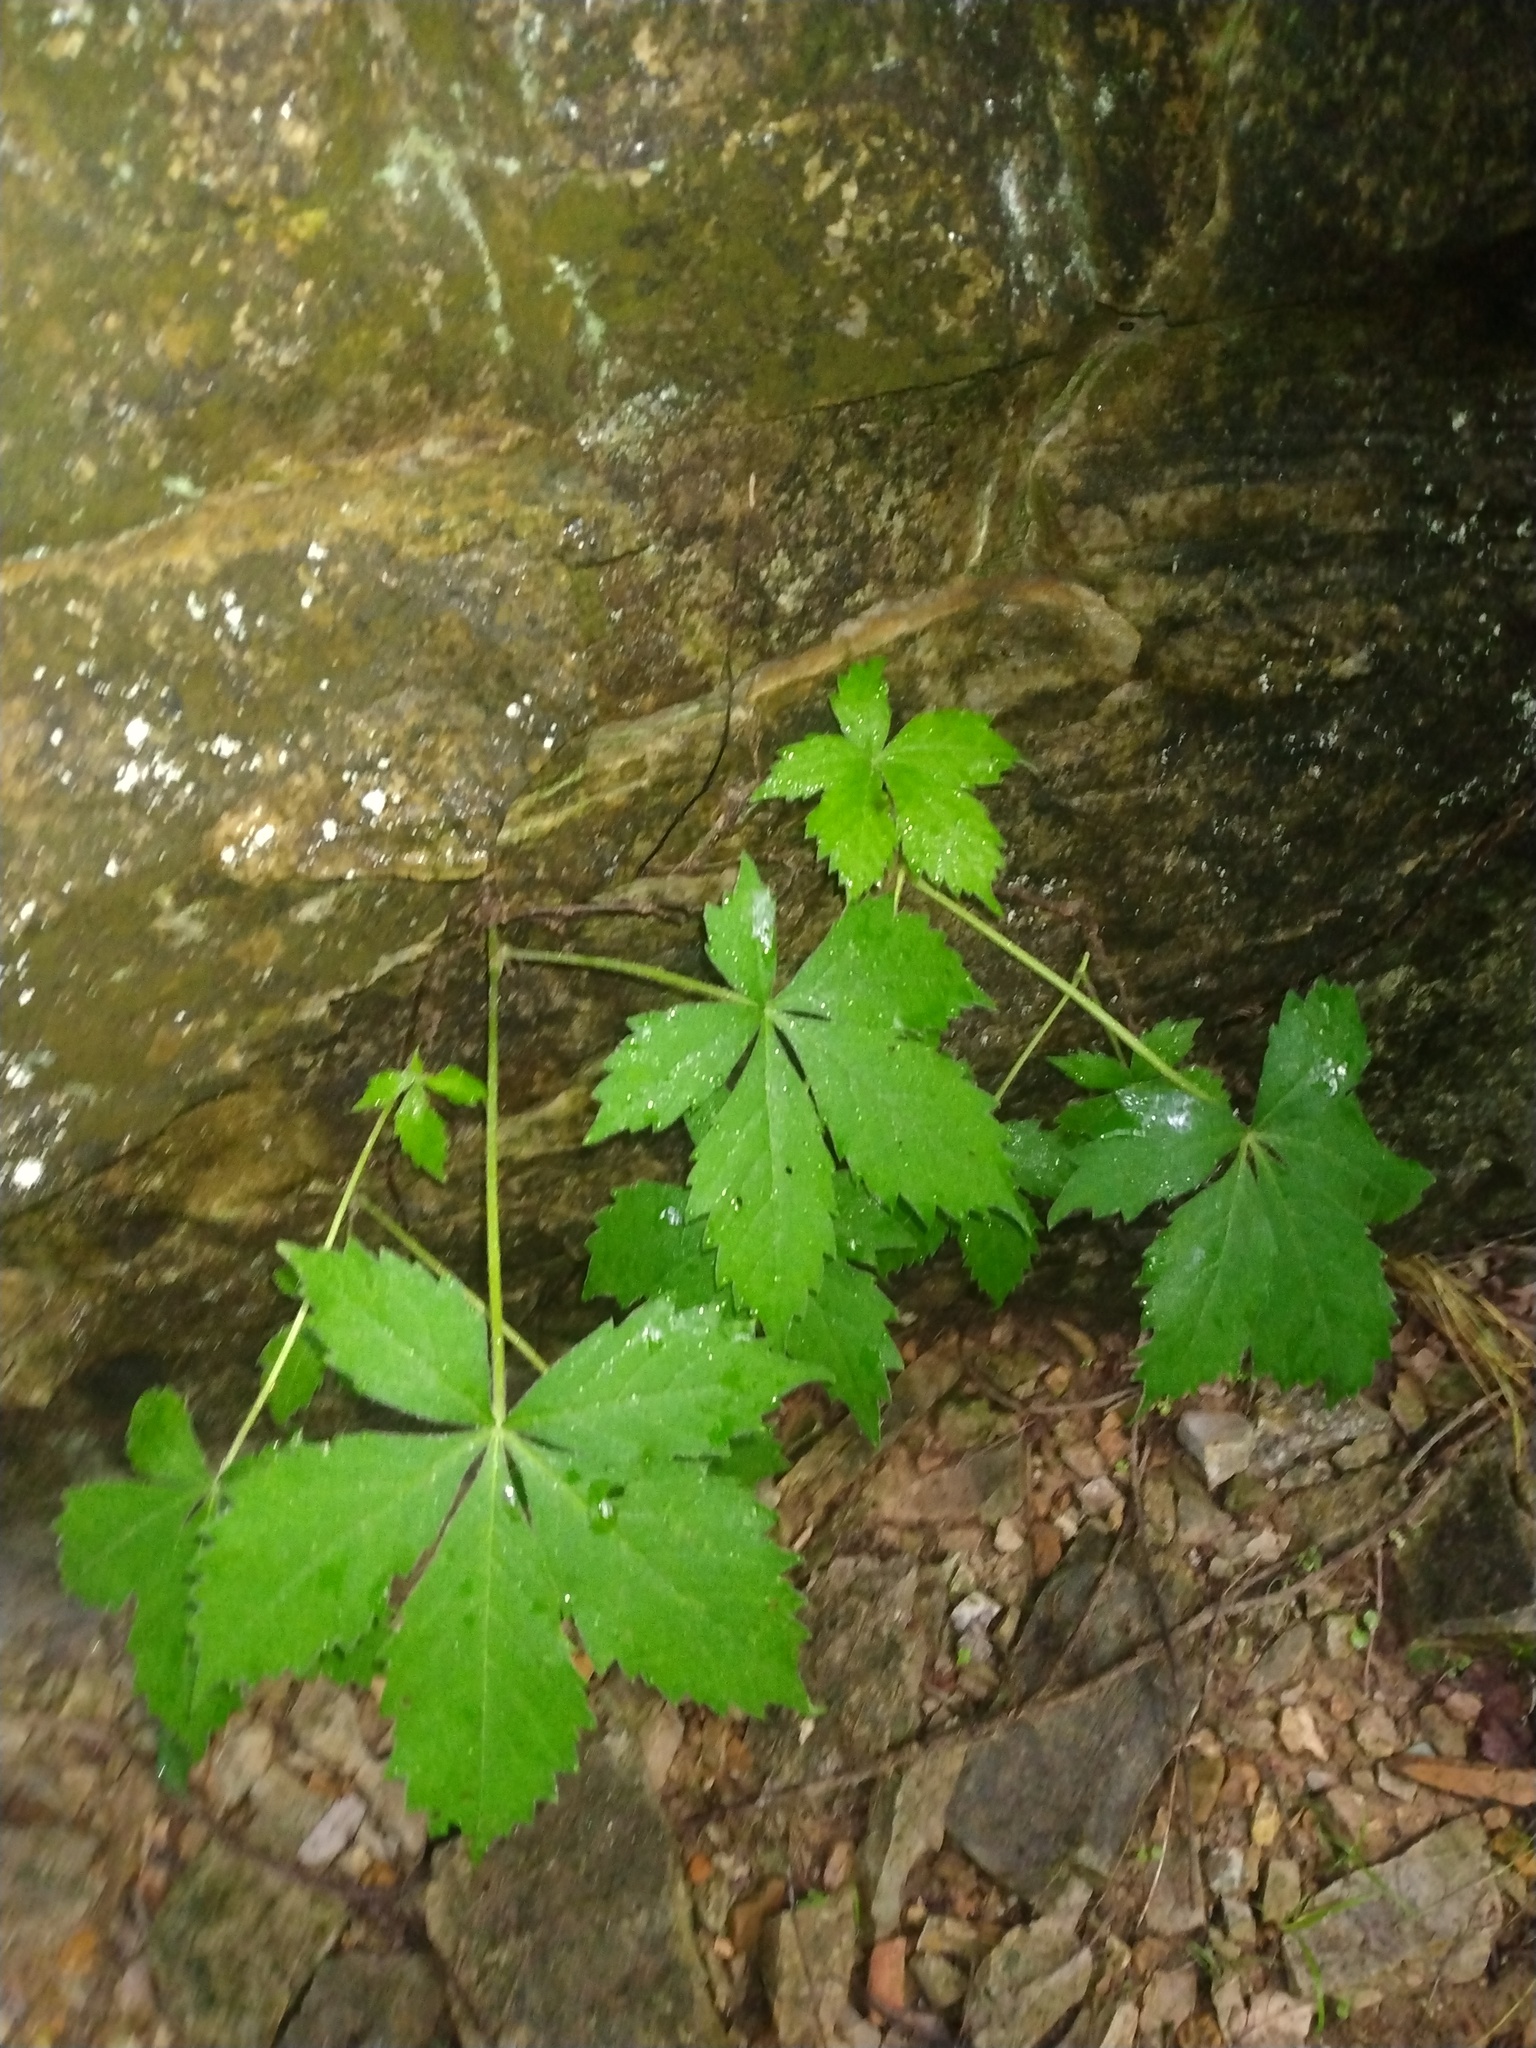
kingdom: Plantae
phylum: Tracheophyta
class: Magnoliopsida
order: Vitales
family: Vitaceae
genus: Parthenocissus
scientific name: Parthenocissus quinquefolia
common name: Virginia-creeper
